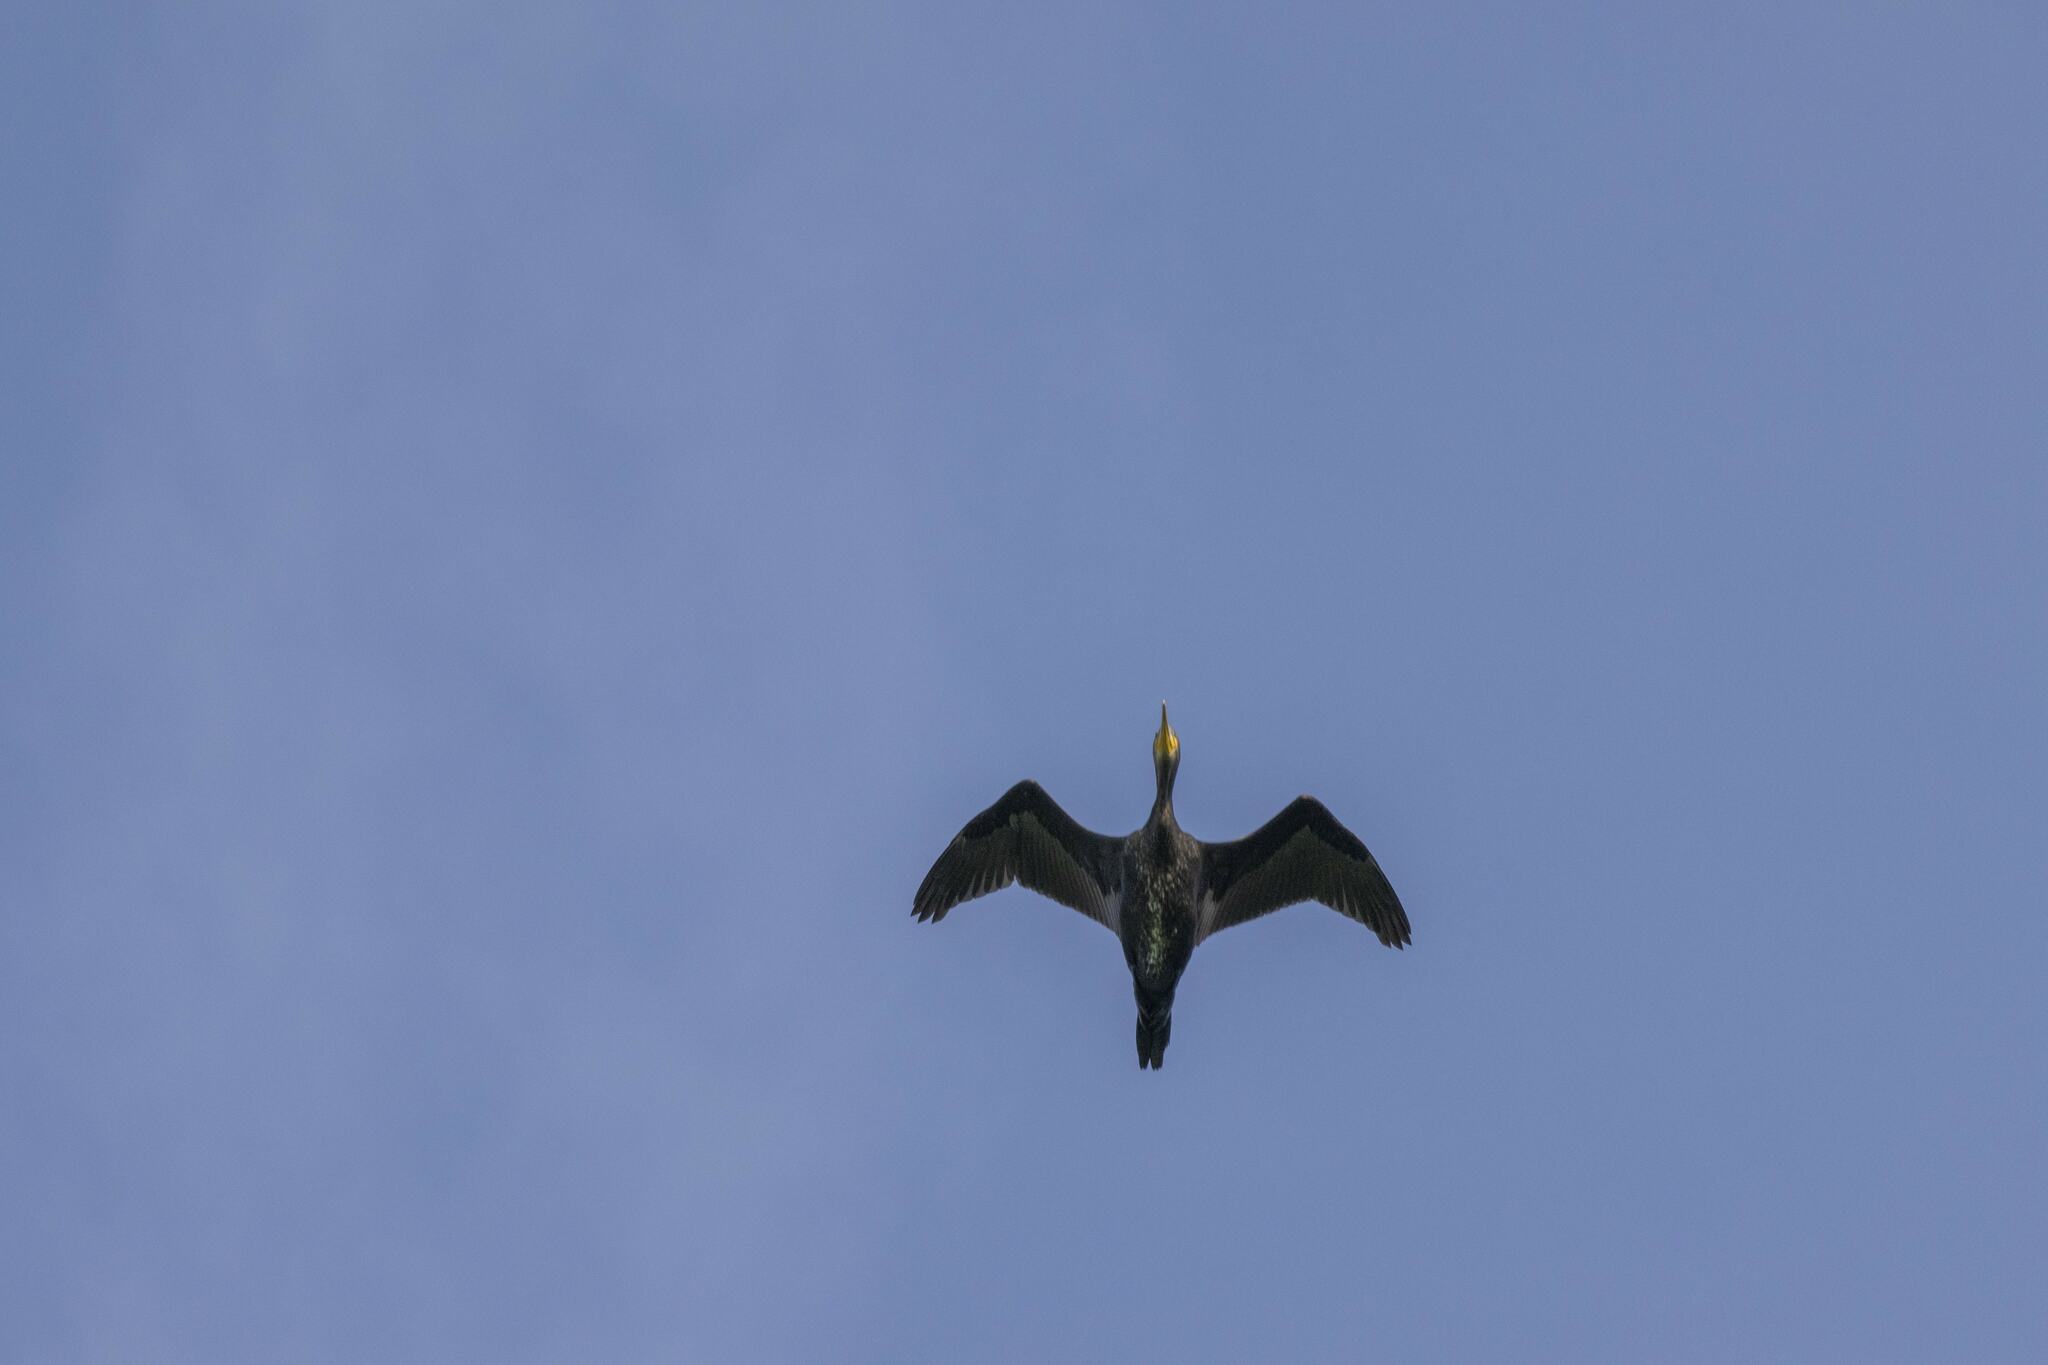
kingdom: Animalia
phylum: Chordata
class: Aves
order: Suliformes
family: Phalacrocoracidae
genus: Phalacrocorax
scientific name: Phalacrocorax carbo
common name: Great cormorant
